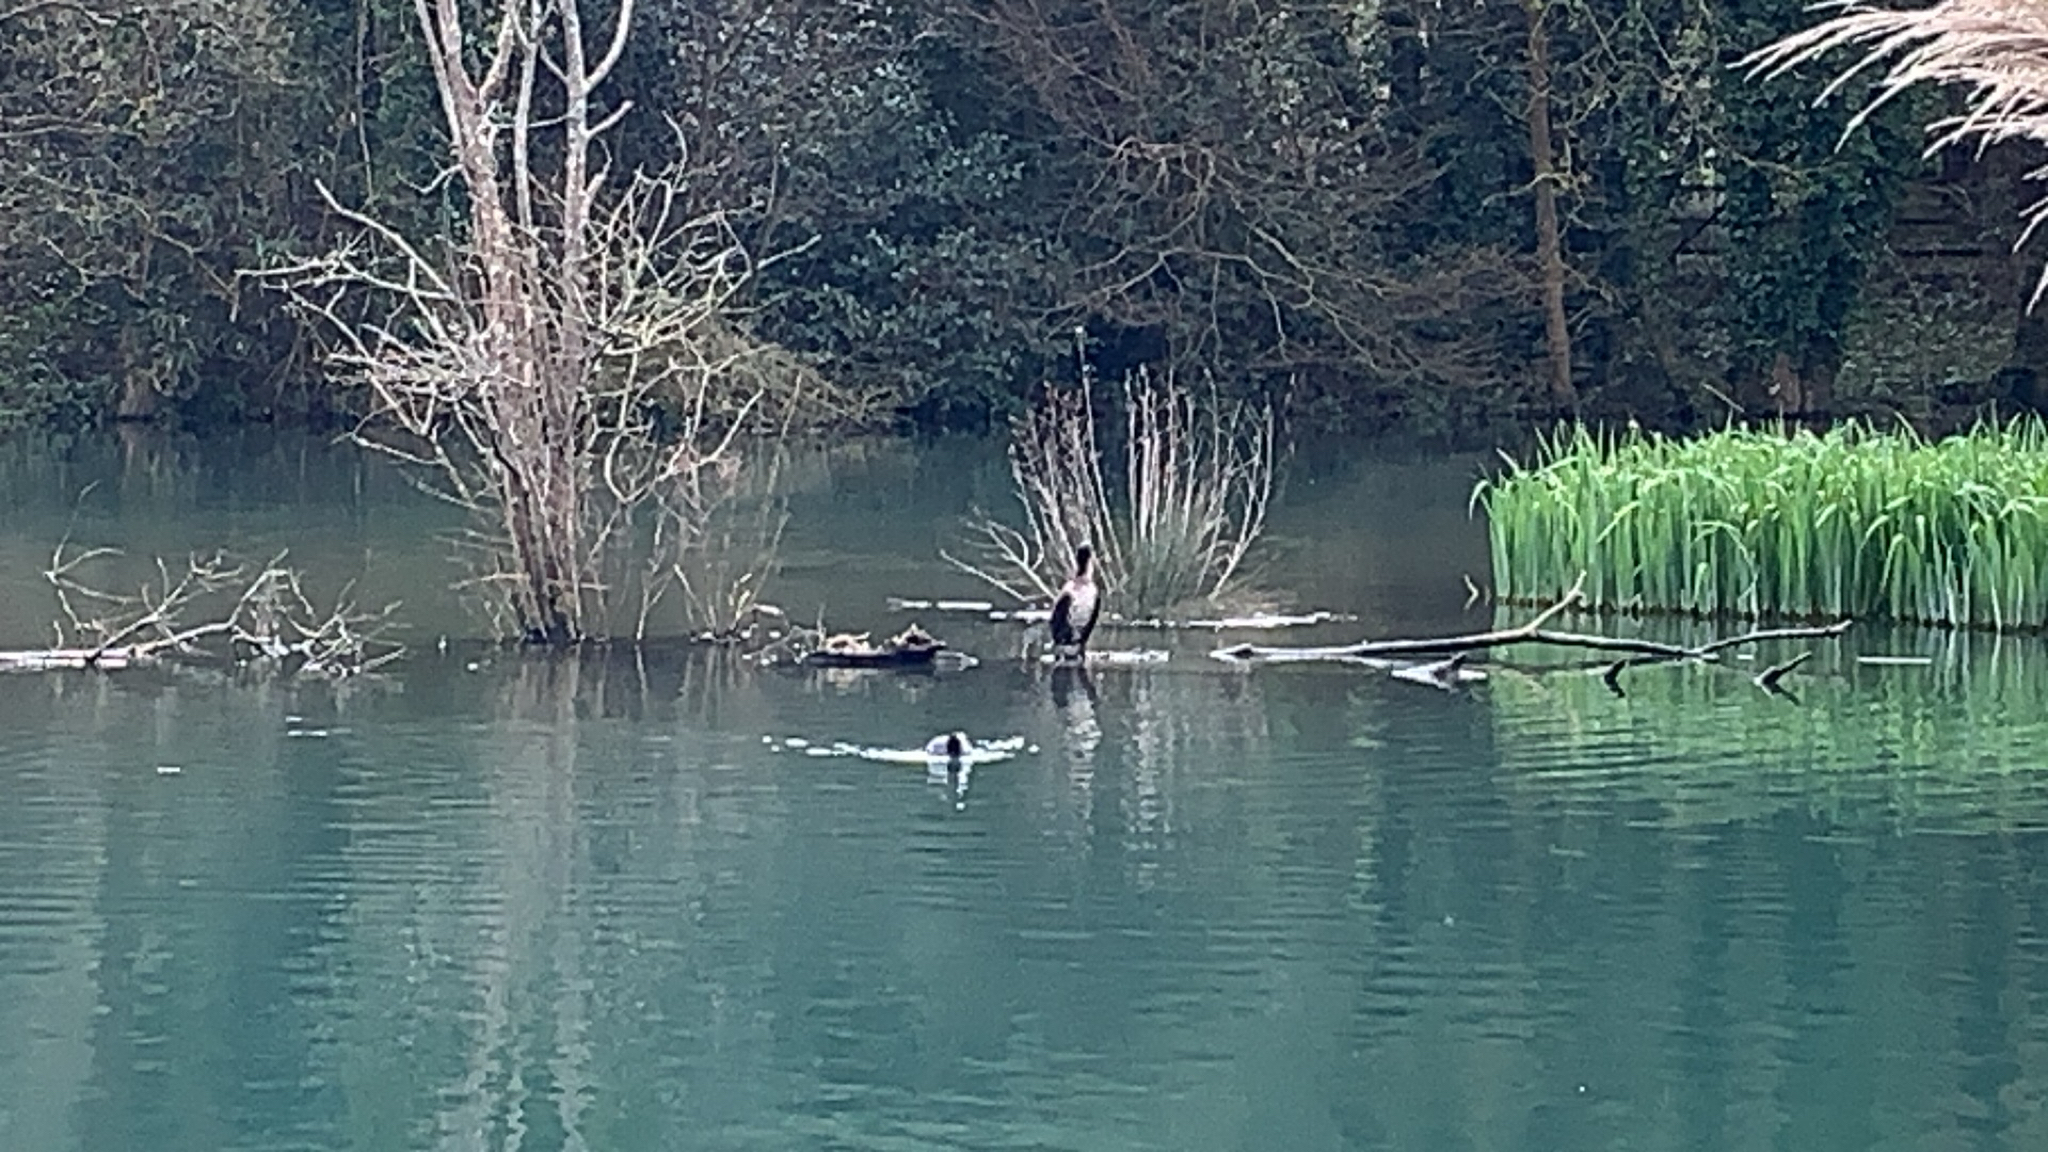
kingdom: Animalia
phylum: Chordata
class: Aves
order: Suliformes
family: Phalacrocoracidae
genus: Phalacrocorax
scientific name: Phalacrocorax carbo
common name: Great cormorant
